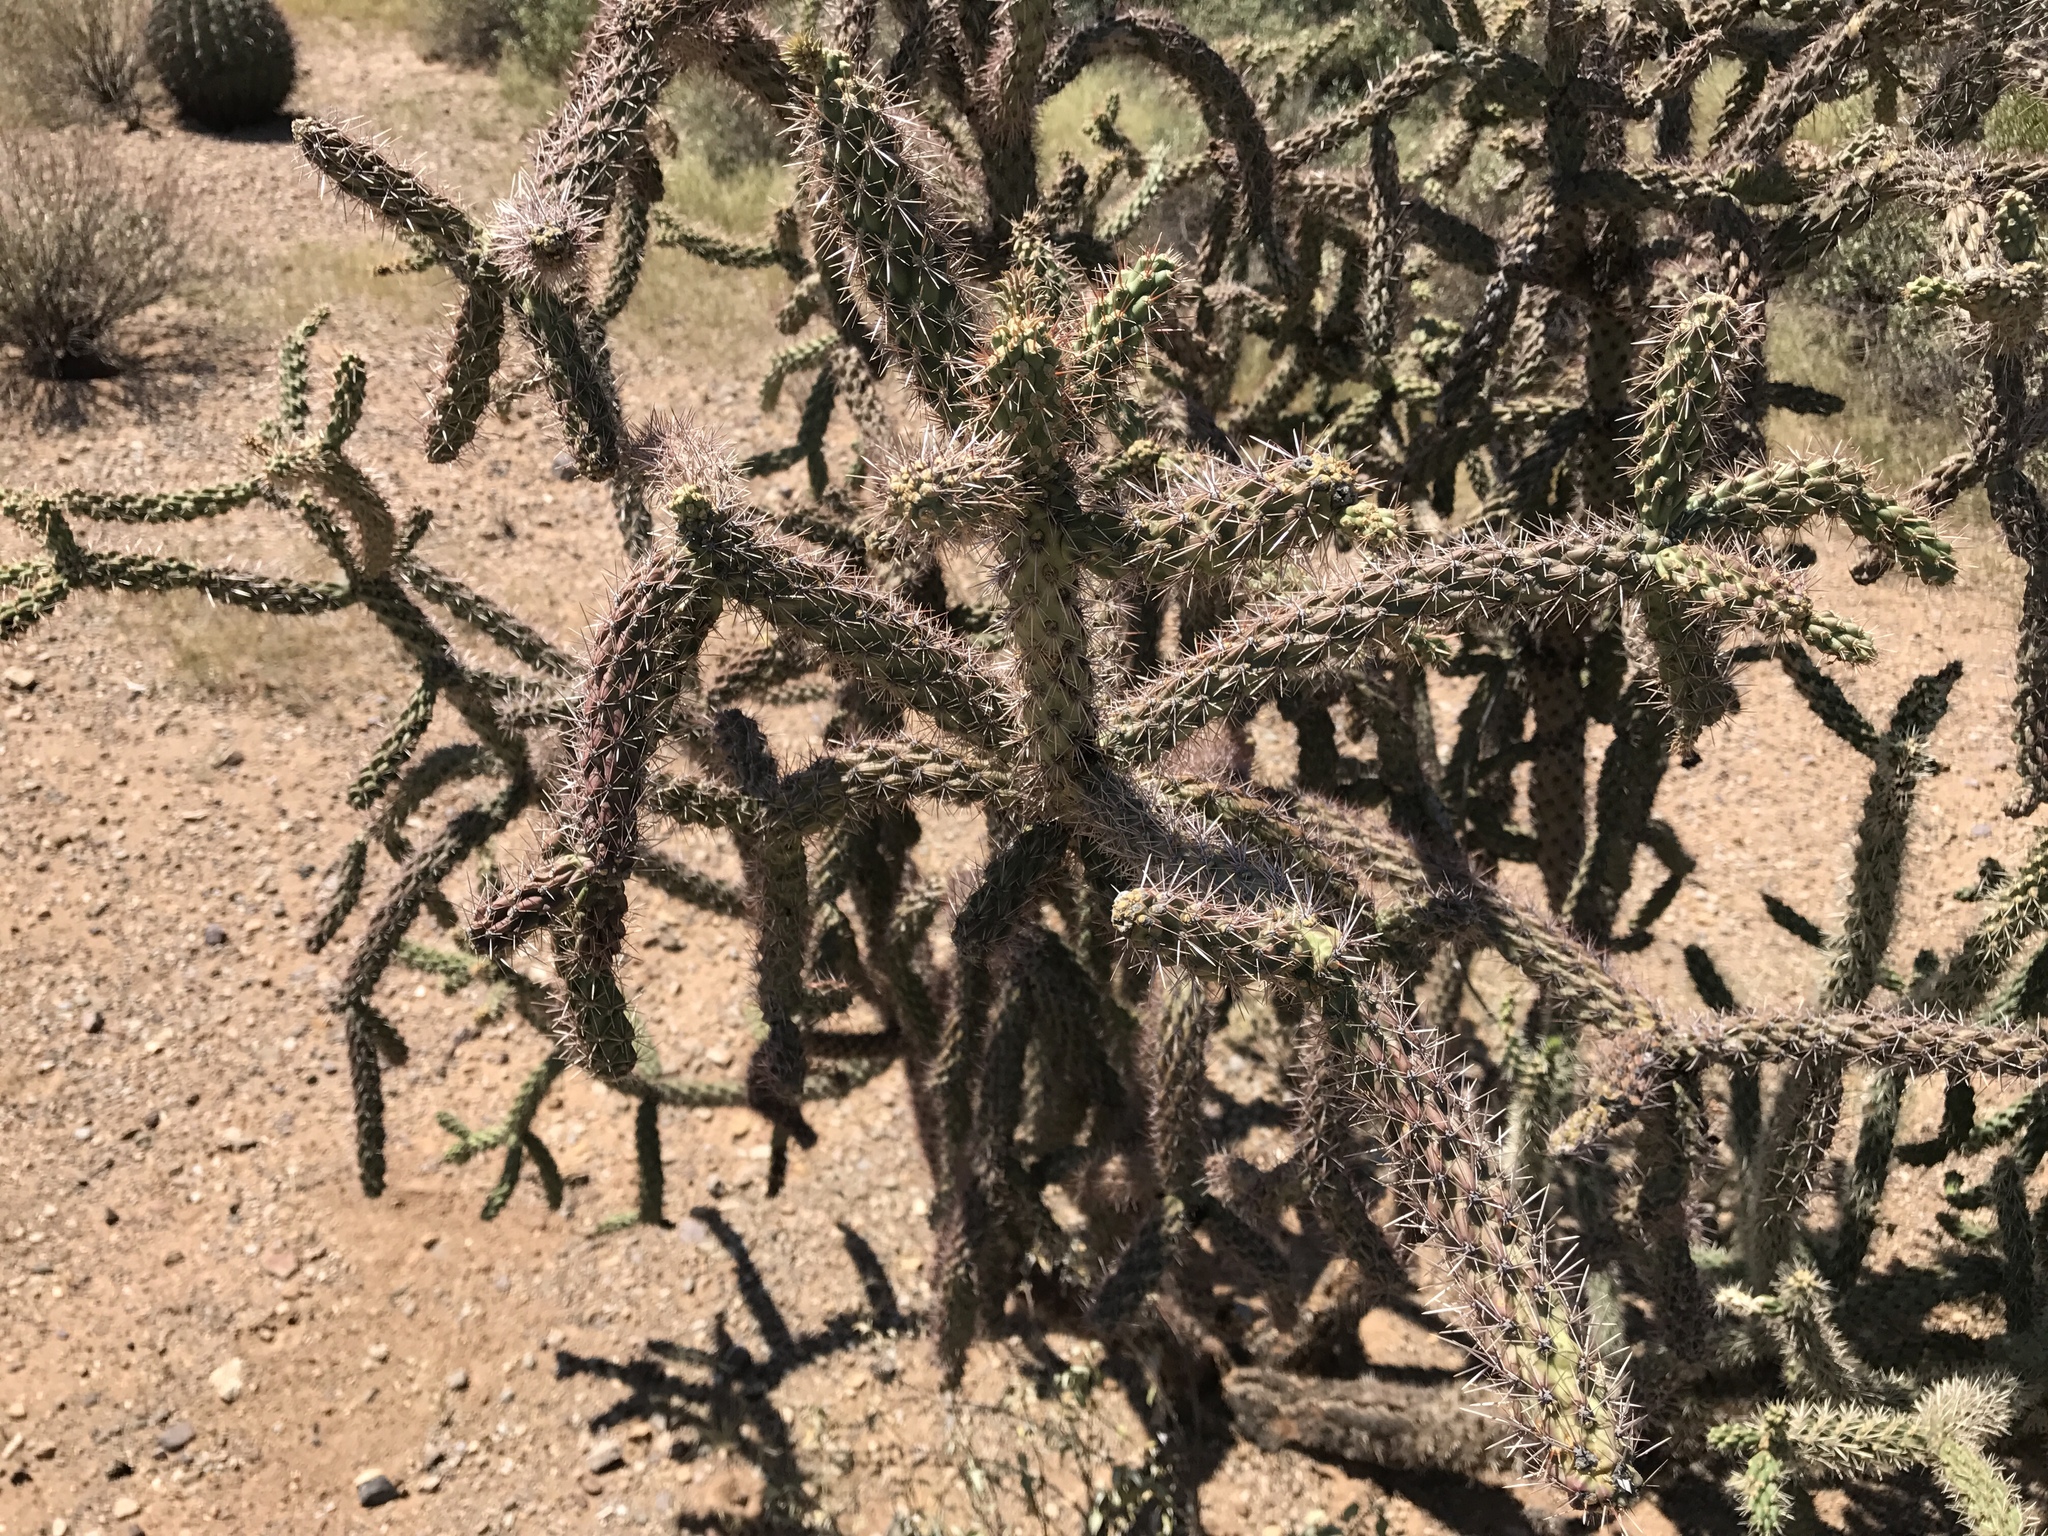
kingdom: Plantae
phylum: Tracheophyta
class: Magnoliopsida
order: Caryophyllales
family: Cactaceae
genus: Cylindropuntia
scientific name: Cylindropuntia thurberi
